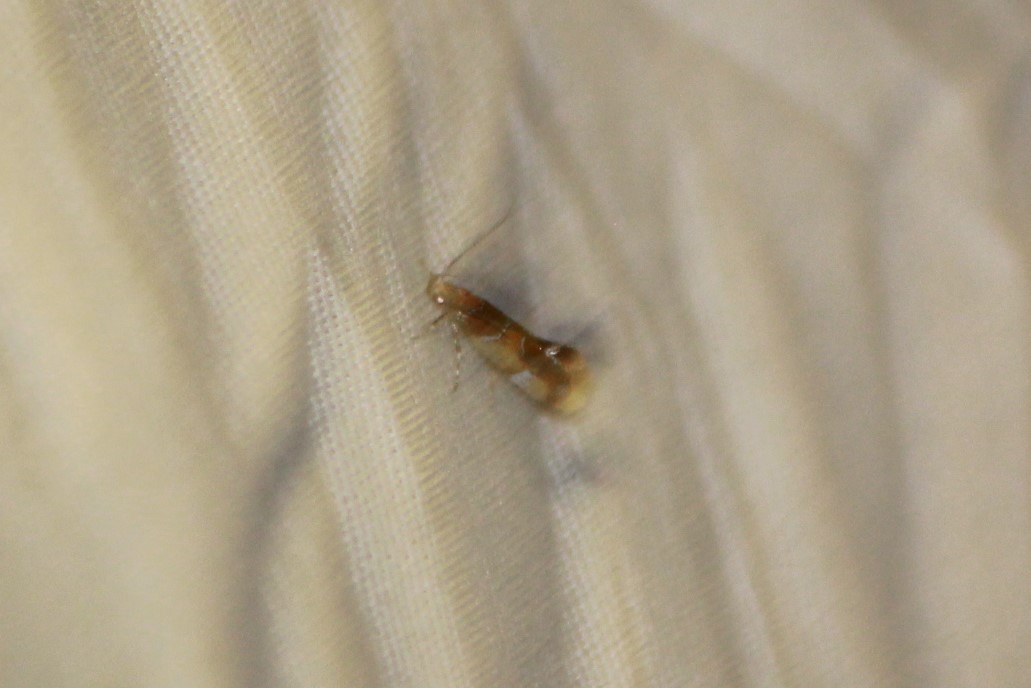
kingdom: Animalia
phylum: Arthropoda
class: Insecta
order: Lepidoptera
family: Oecophoridae
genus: Callima
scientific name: Callima argenticinctella
